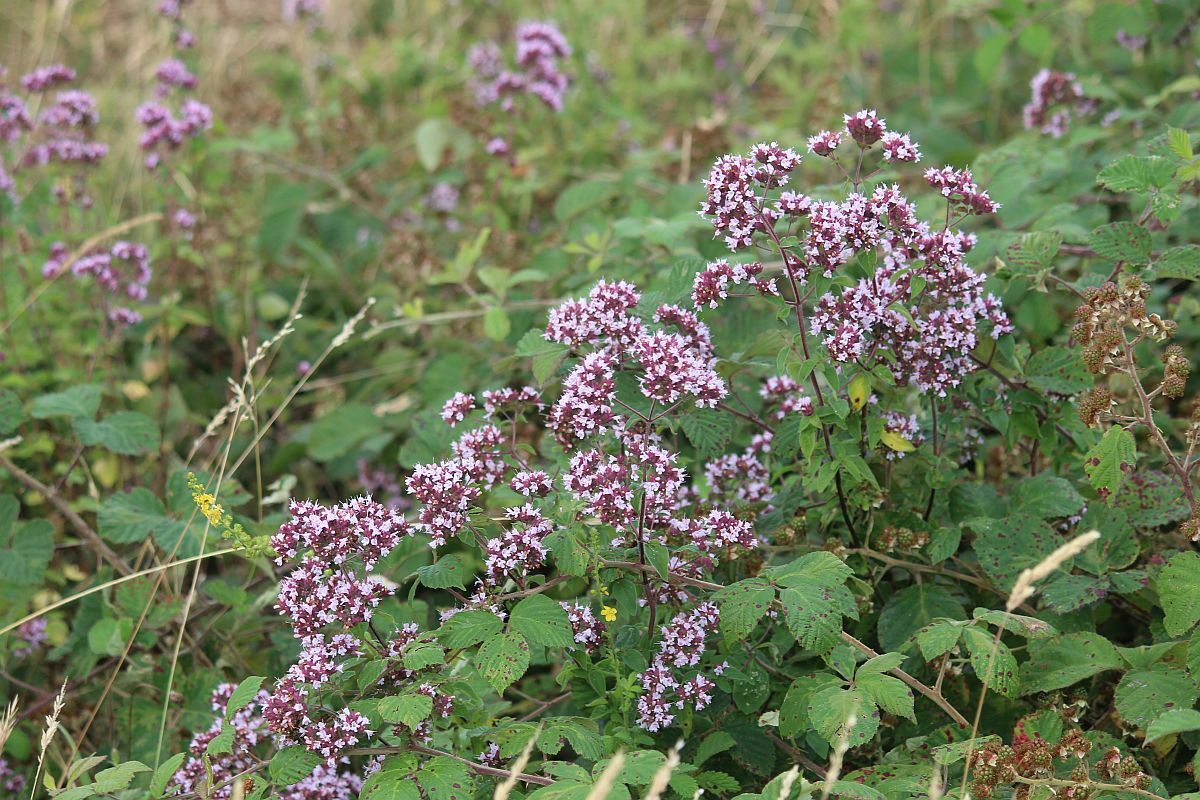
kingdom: Plantae
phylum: Tracheophyta
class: Magnoliopsida
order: Lamiales
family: Lamiaceae
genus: Origanum
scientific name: Origanum vulgare
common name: Wild marjoram
